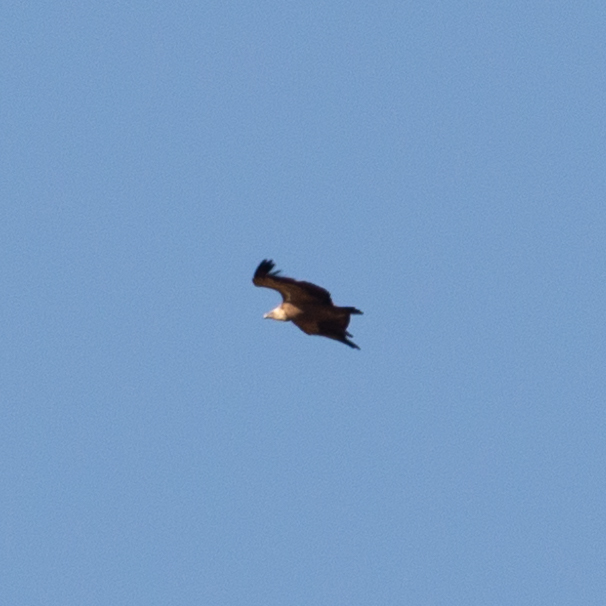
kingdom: Animalia
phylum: Chordata
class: Aves
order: Accipitriformes
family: Accipitridae
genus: Gyps
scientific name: Gyps fulvus
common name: Griffon vulture
